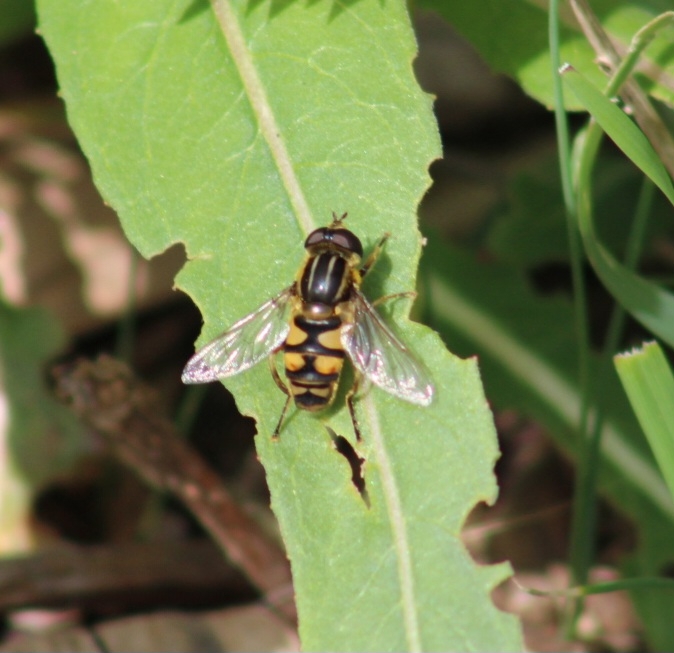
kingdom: Animalia
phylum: Arthropoda
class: Insecta
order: Diptera
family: Syrphidae
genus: Helophilus
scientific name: Helophilus fasciatus
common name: Narrow-headed marsh fly
